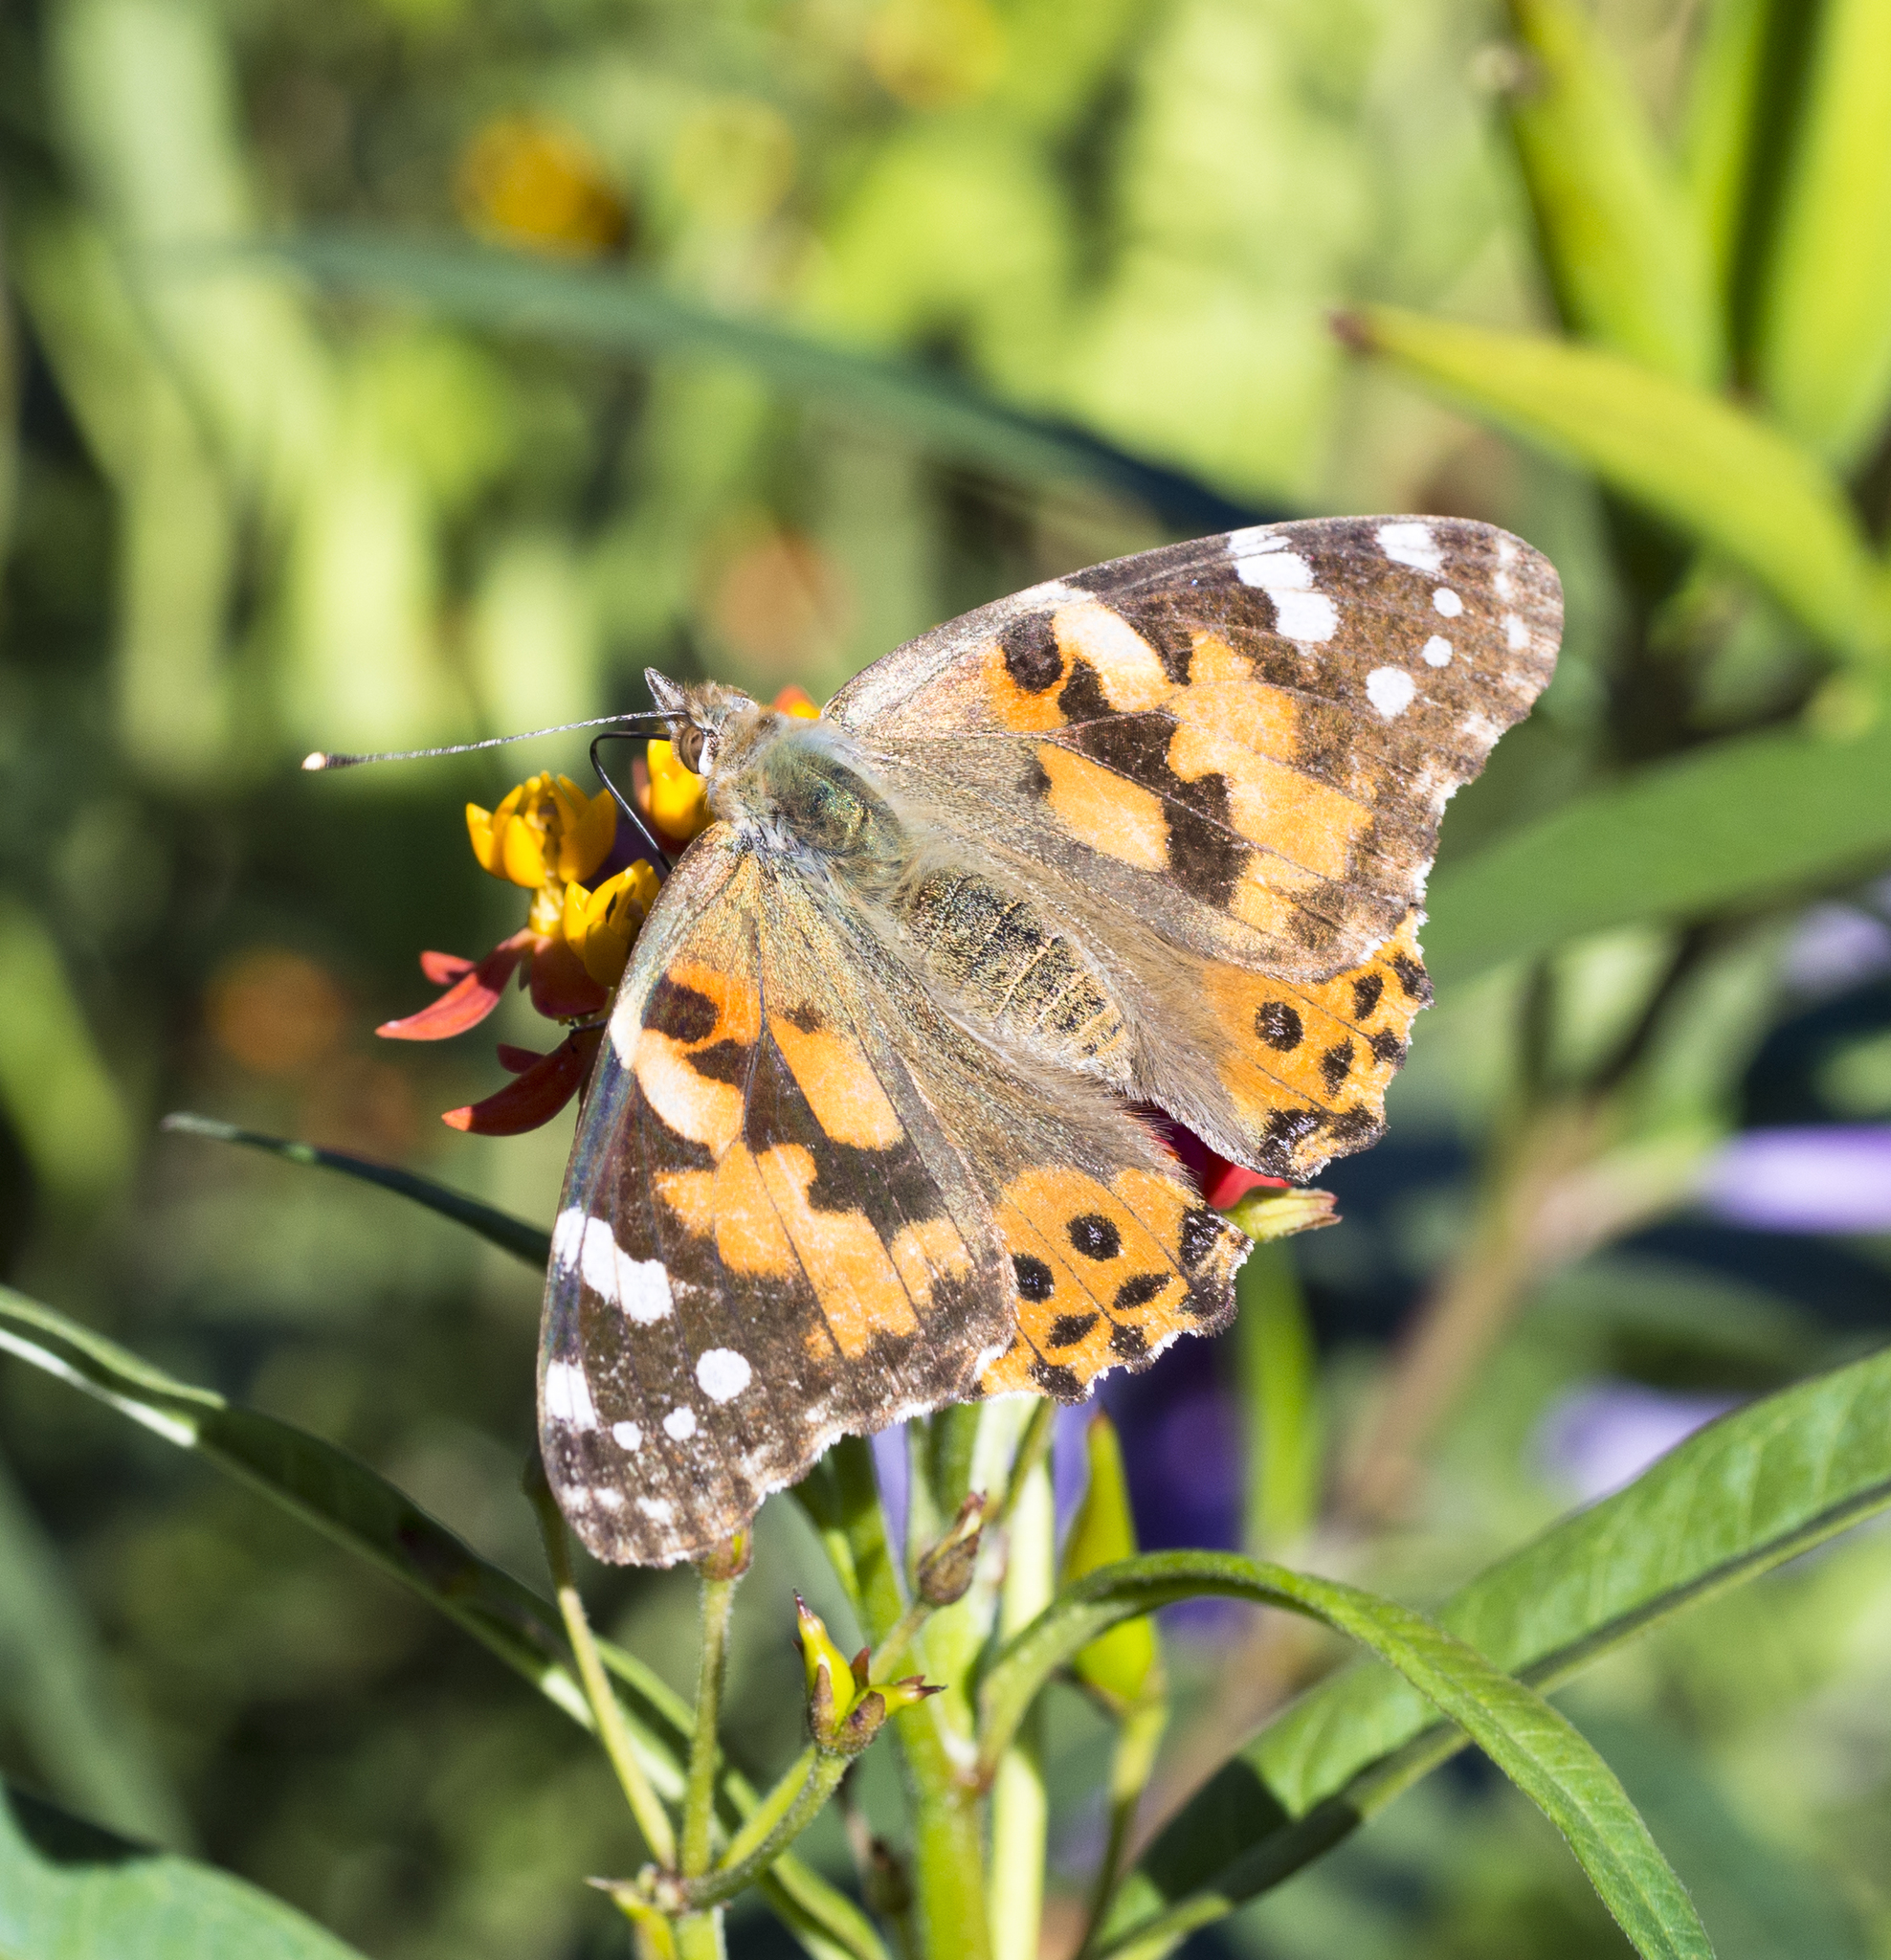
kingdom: Animalia
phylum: Arthropoda
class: Insecta
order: Lepidoptera
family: Nymphalidae
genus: Vanessa
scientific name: Vanessa cardui
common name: Painted lady
